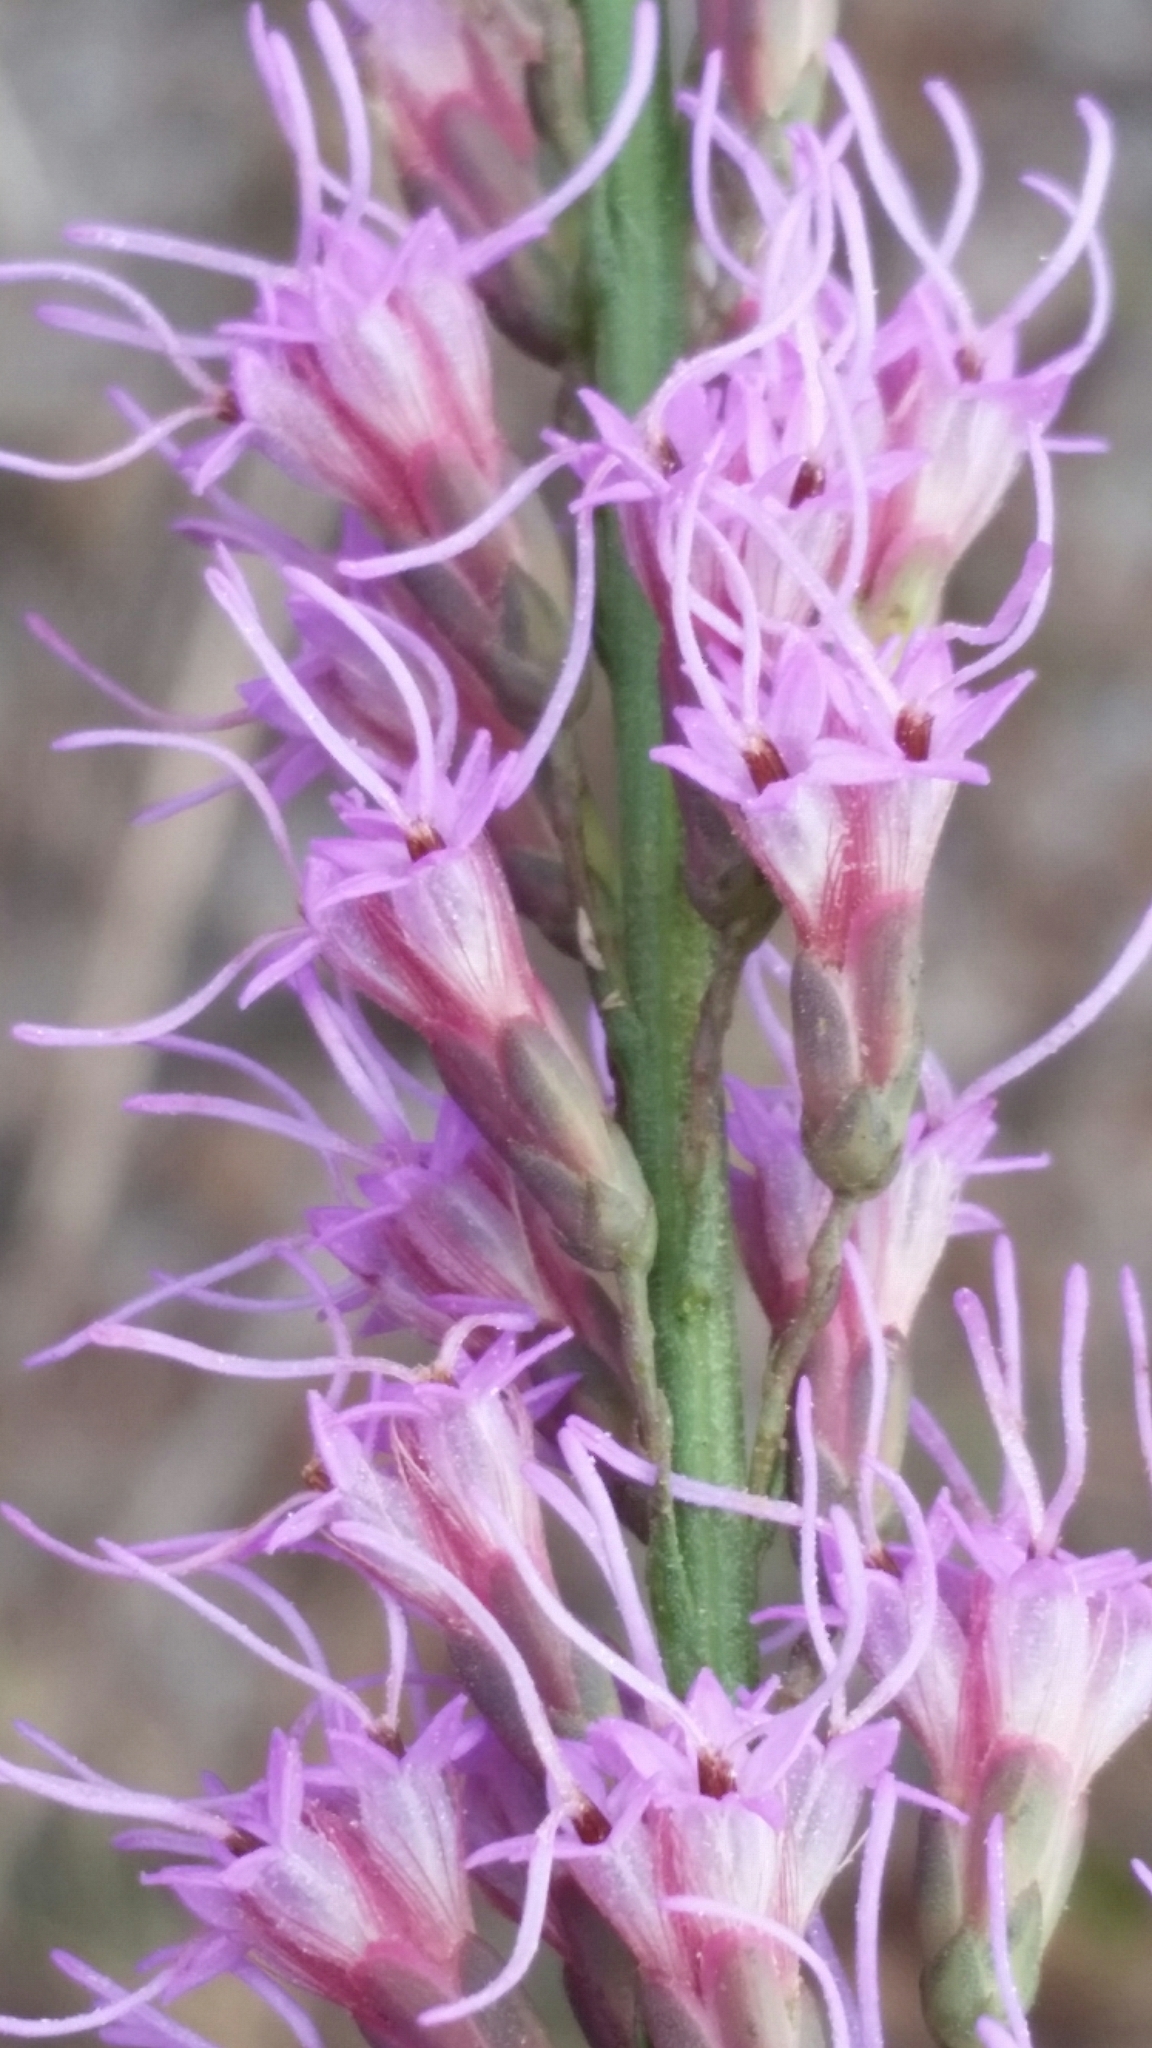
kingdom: Plantae
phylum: Tracheophyta
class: Magnoliopsida
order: Asterales
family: Asteraceae
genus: Liatris
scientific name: Liatris quadriflora
